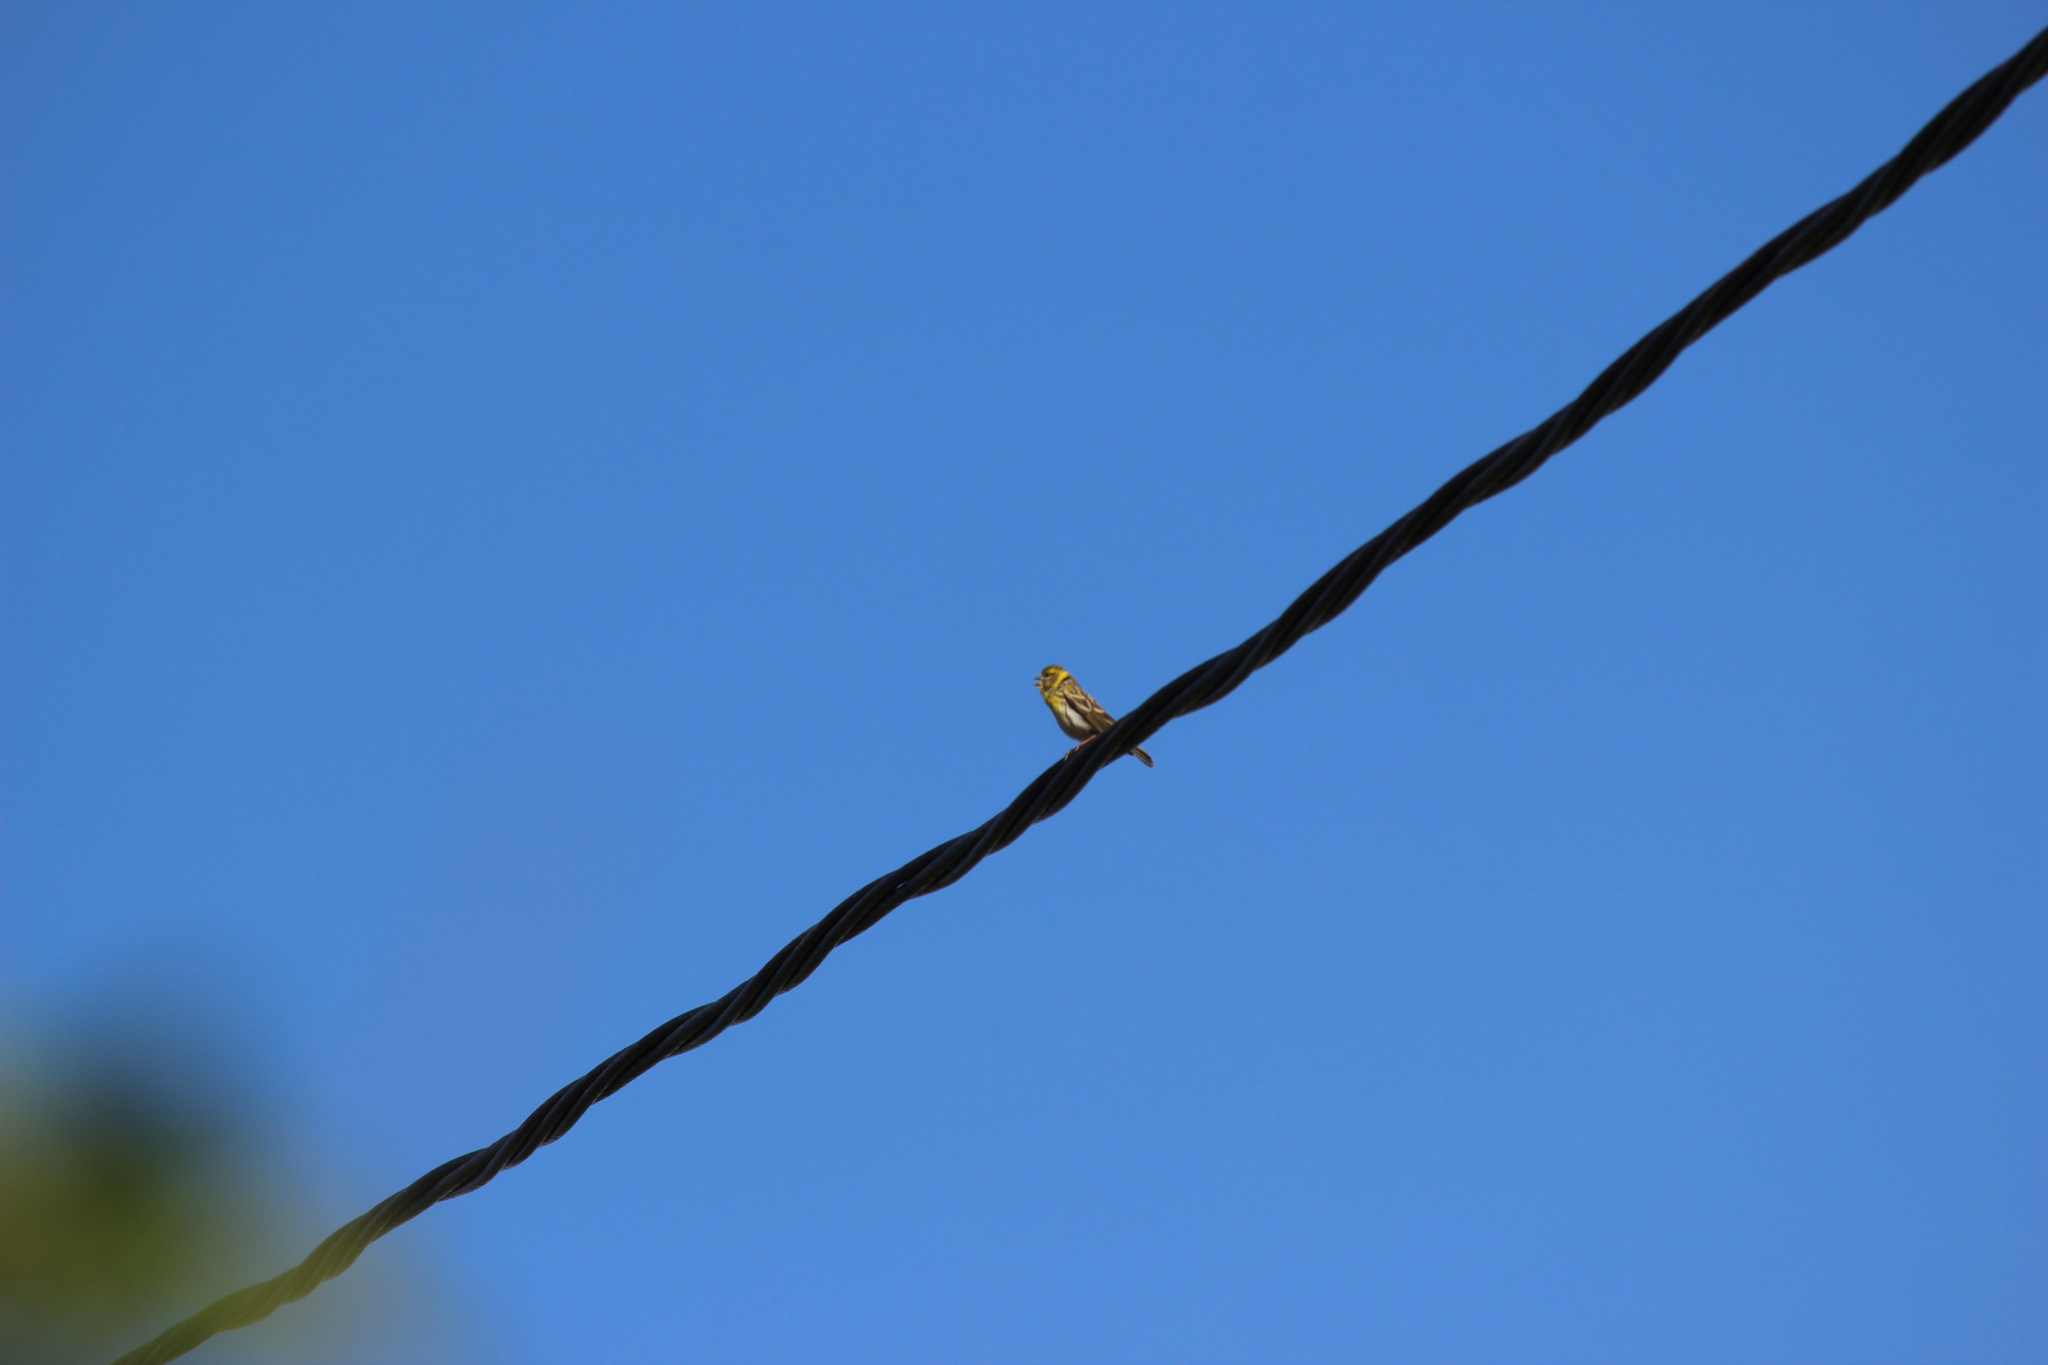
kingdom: Animalia
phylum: Chordata
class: Aves
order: Passeriformes
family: Fringillidae
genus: Serinus
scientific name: Serinus serinus
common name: European serin
